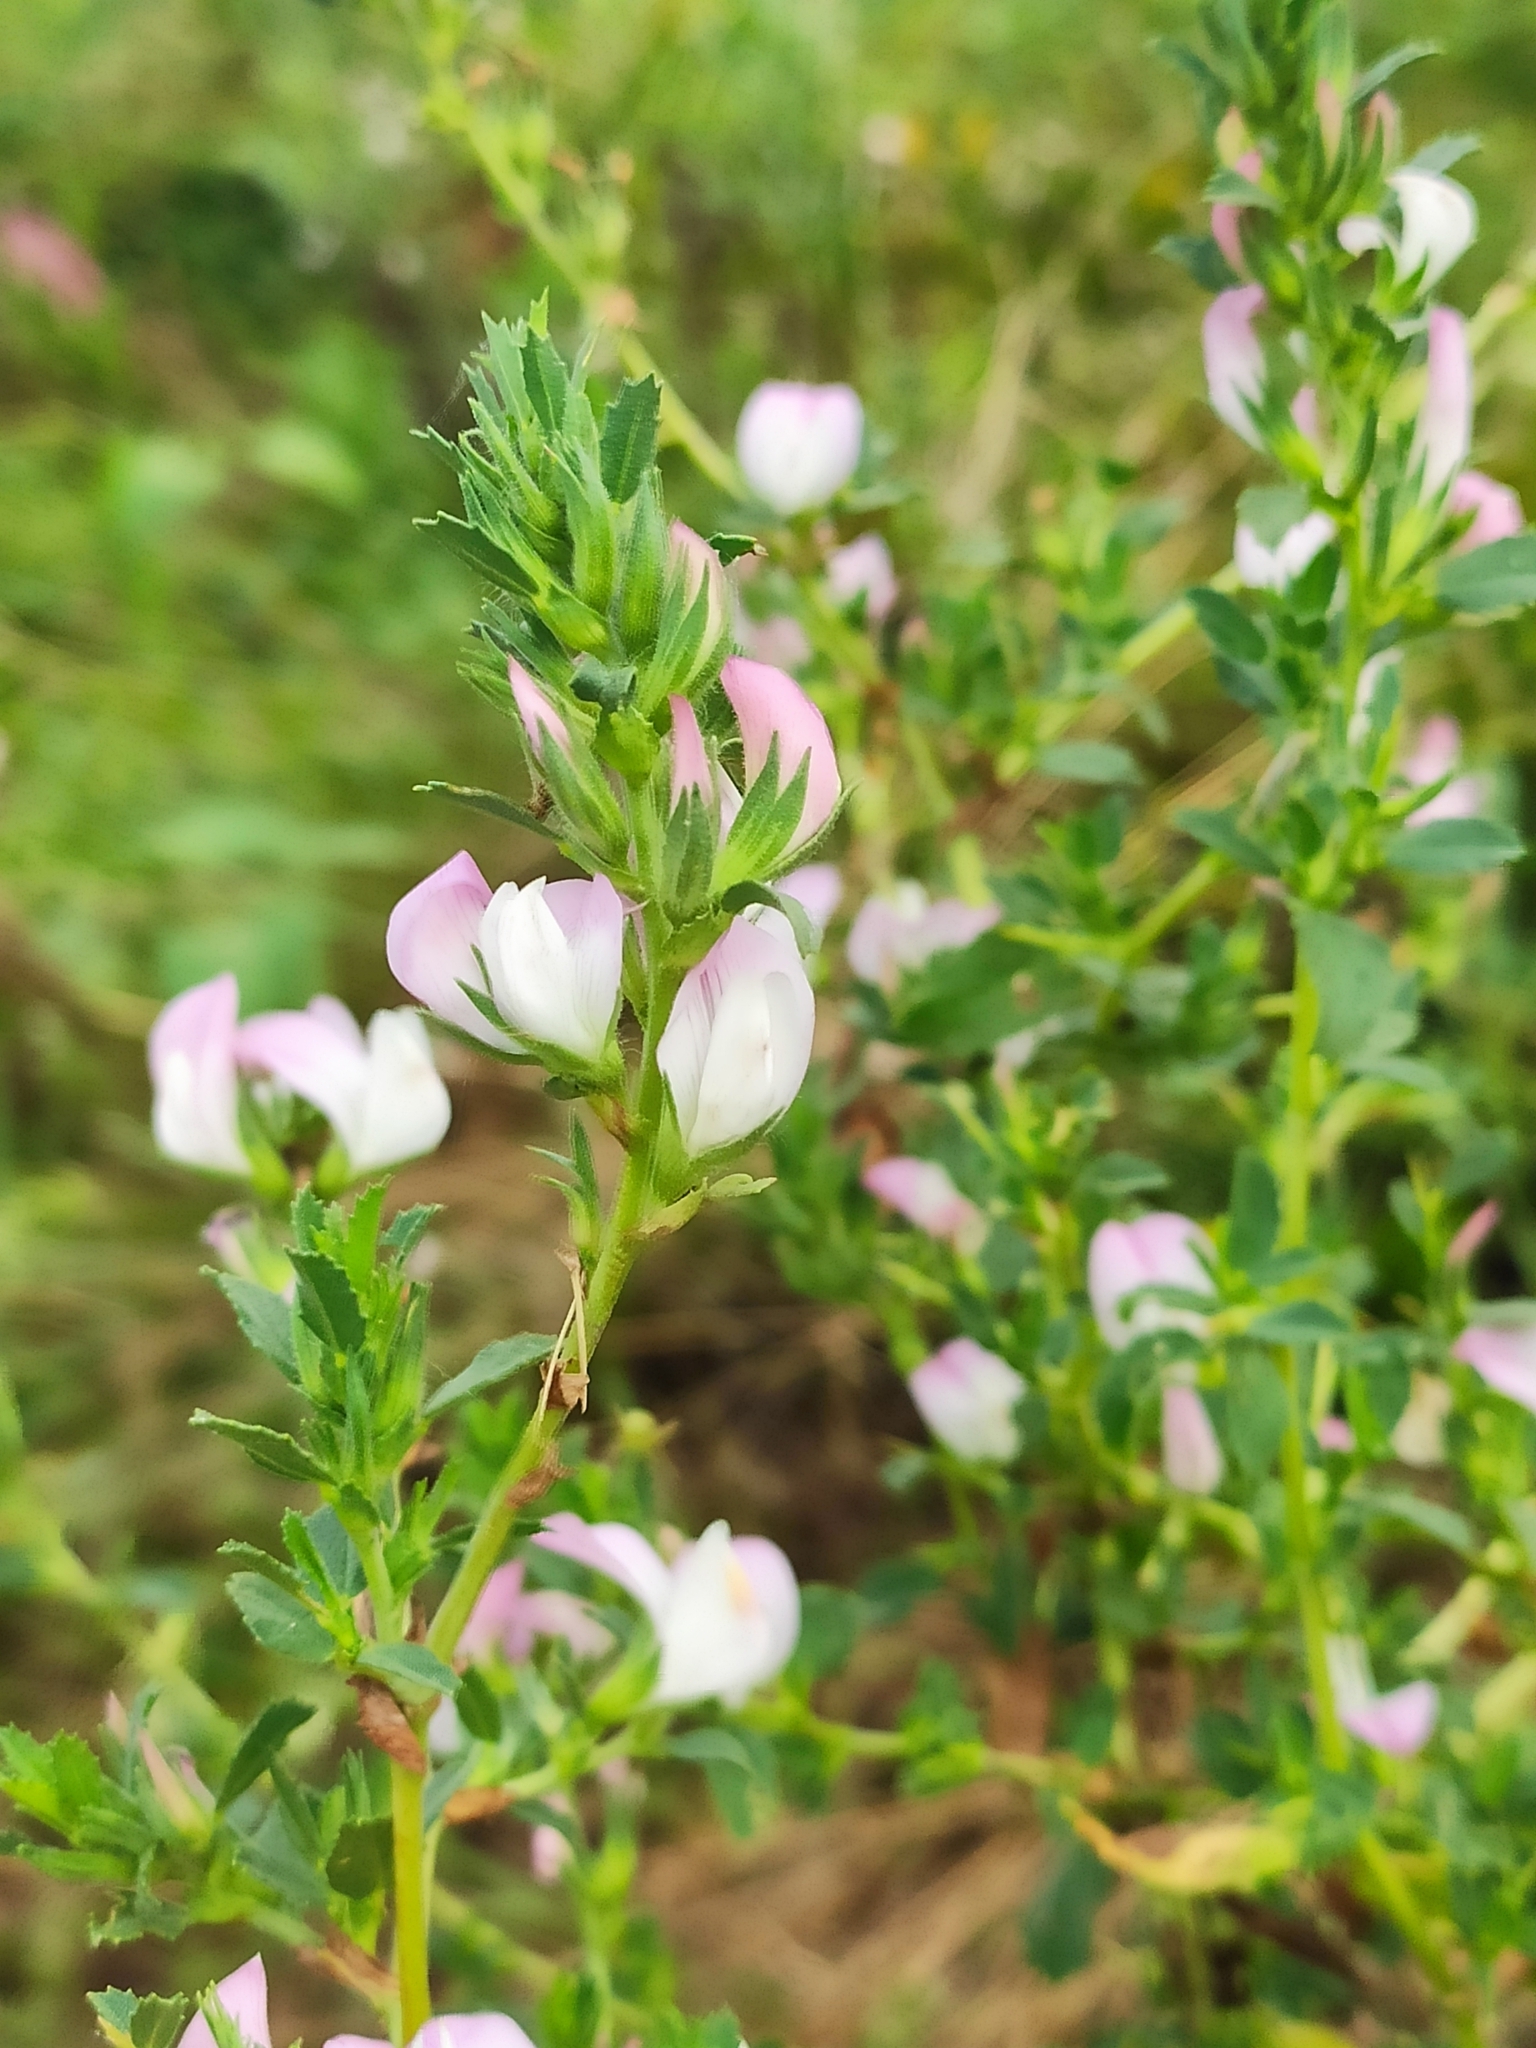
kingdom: Plantae
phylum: Tracheophyta
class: Magnoliopsida
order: Fabales
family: Fabaceae
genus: Ononis
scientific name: Ononis arvensis
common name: Field restharrow
